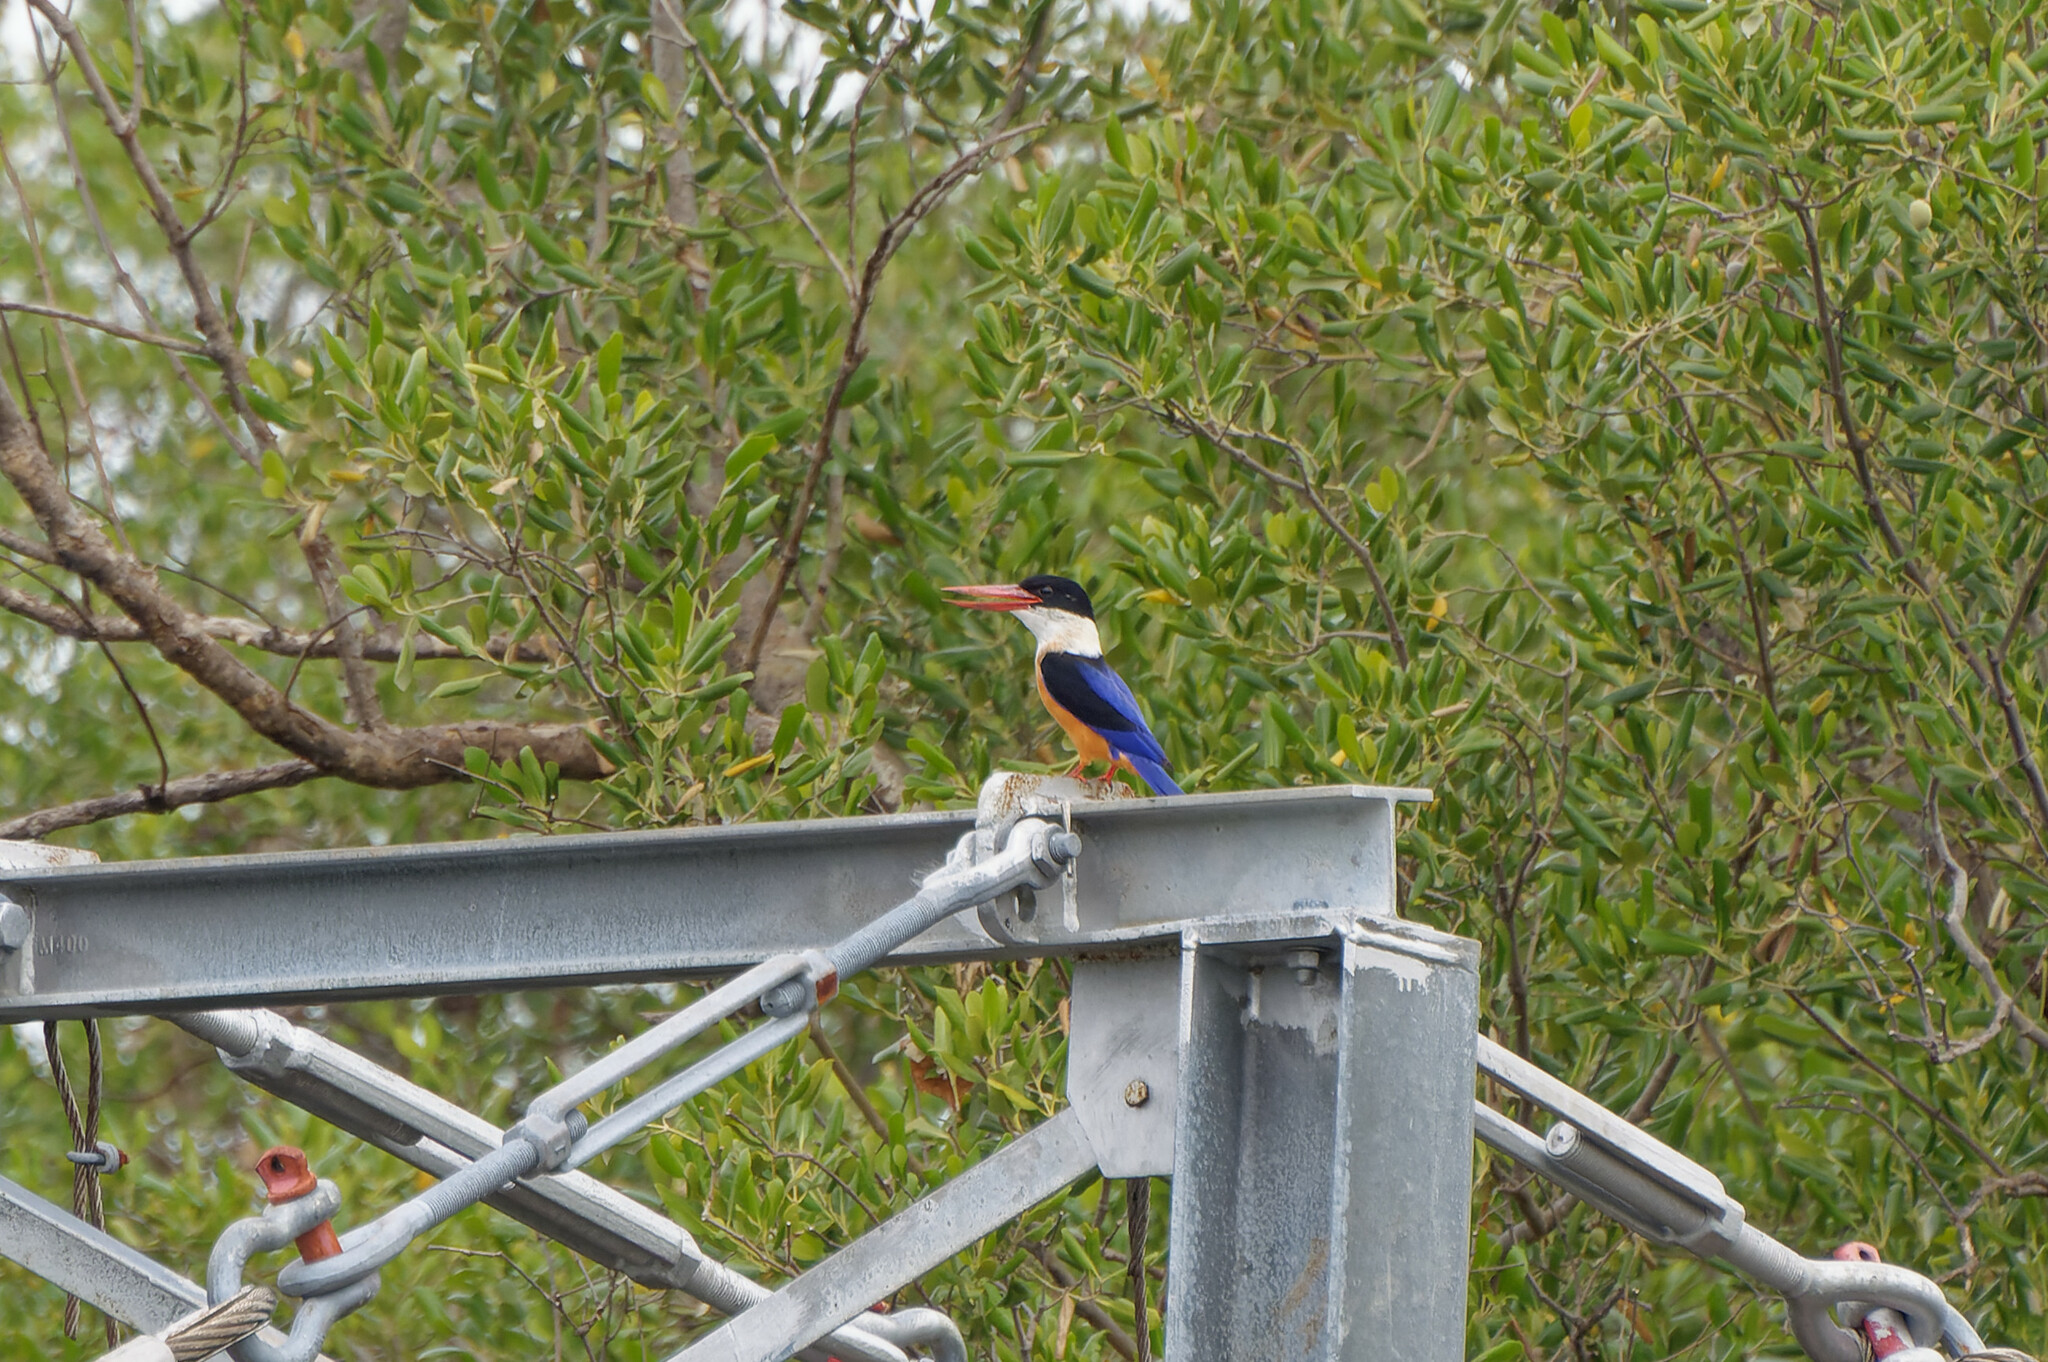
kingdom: Animalia
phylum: Chordata
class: Aves
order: Coraciiformes
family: Alcedinidae
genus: Halcyon
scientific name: Halcyon pileata
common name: Black-capped kingfisher
